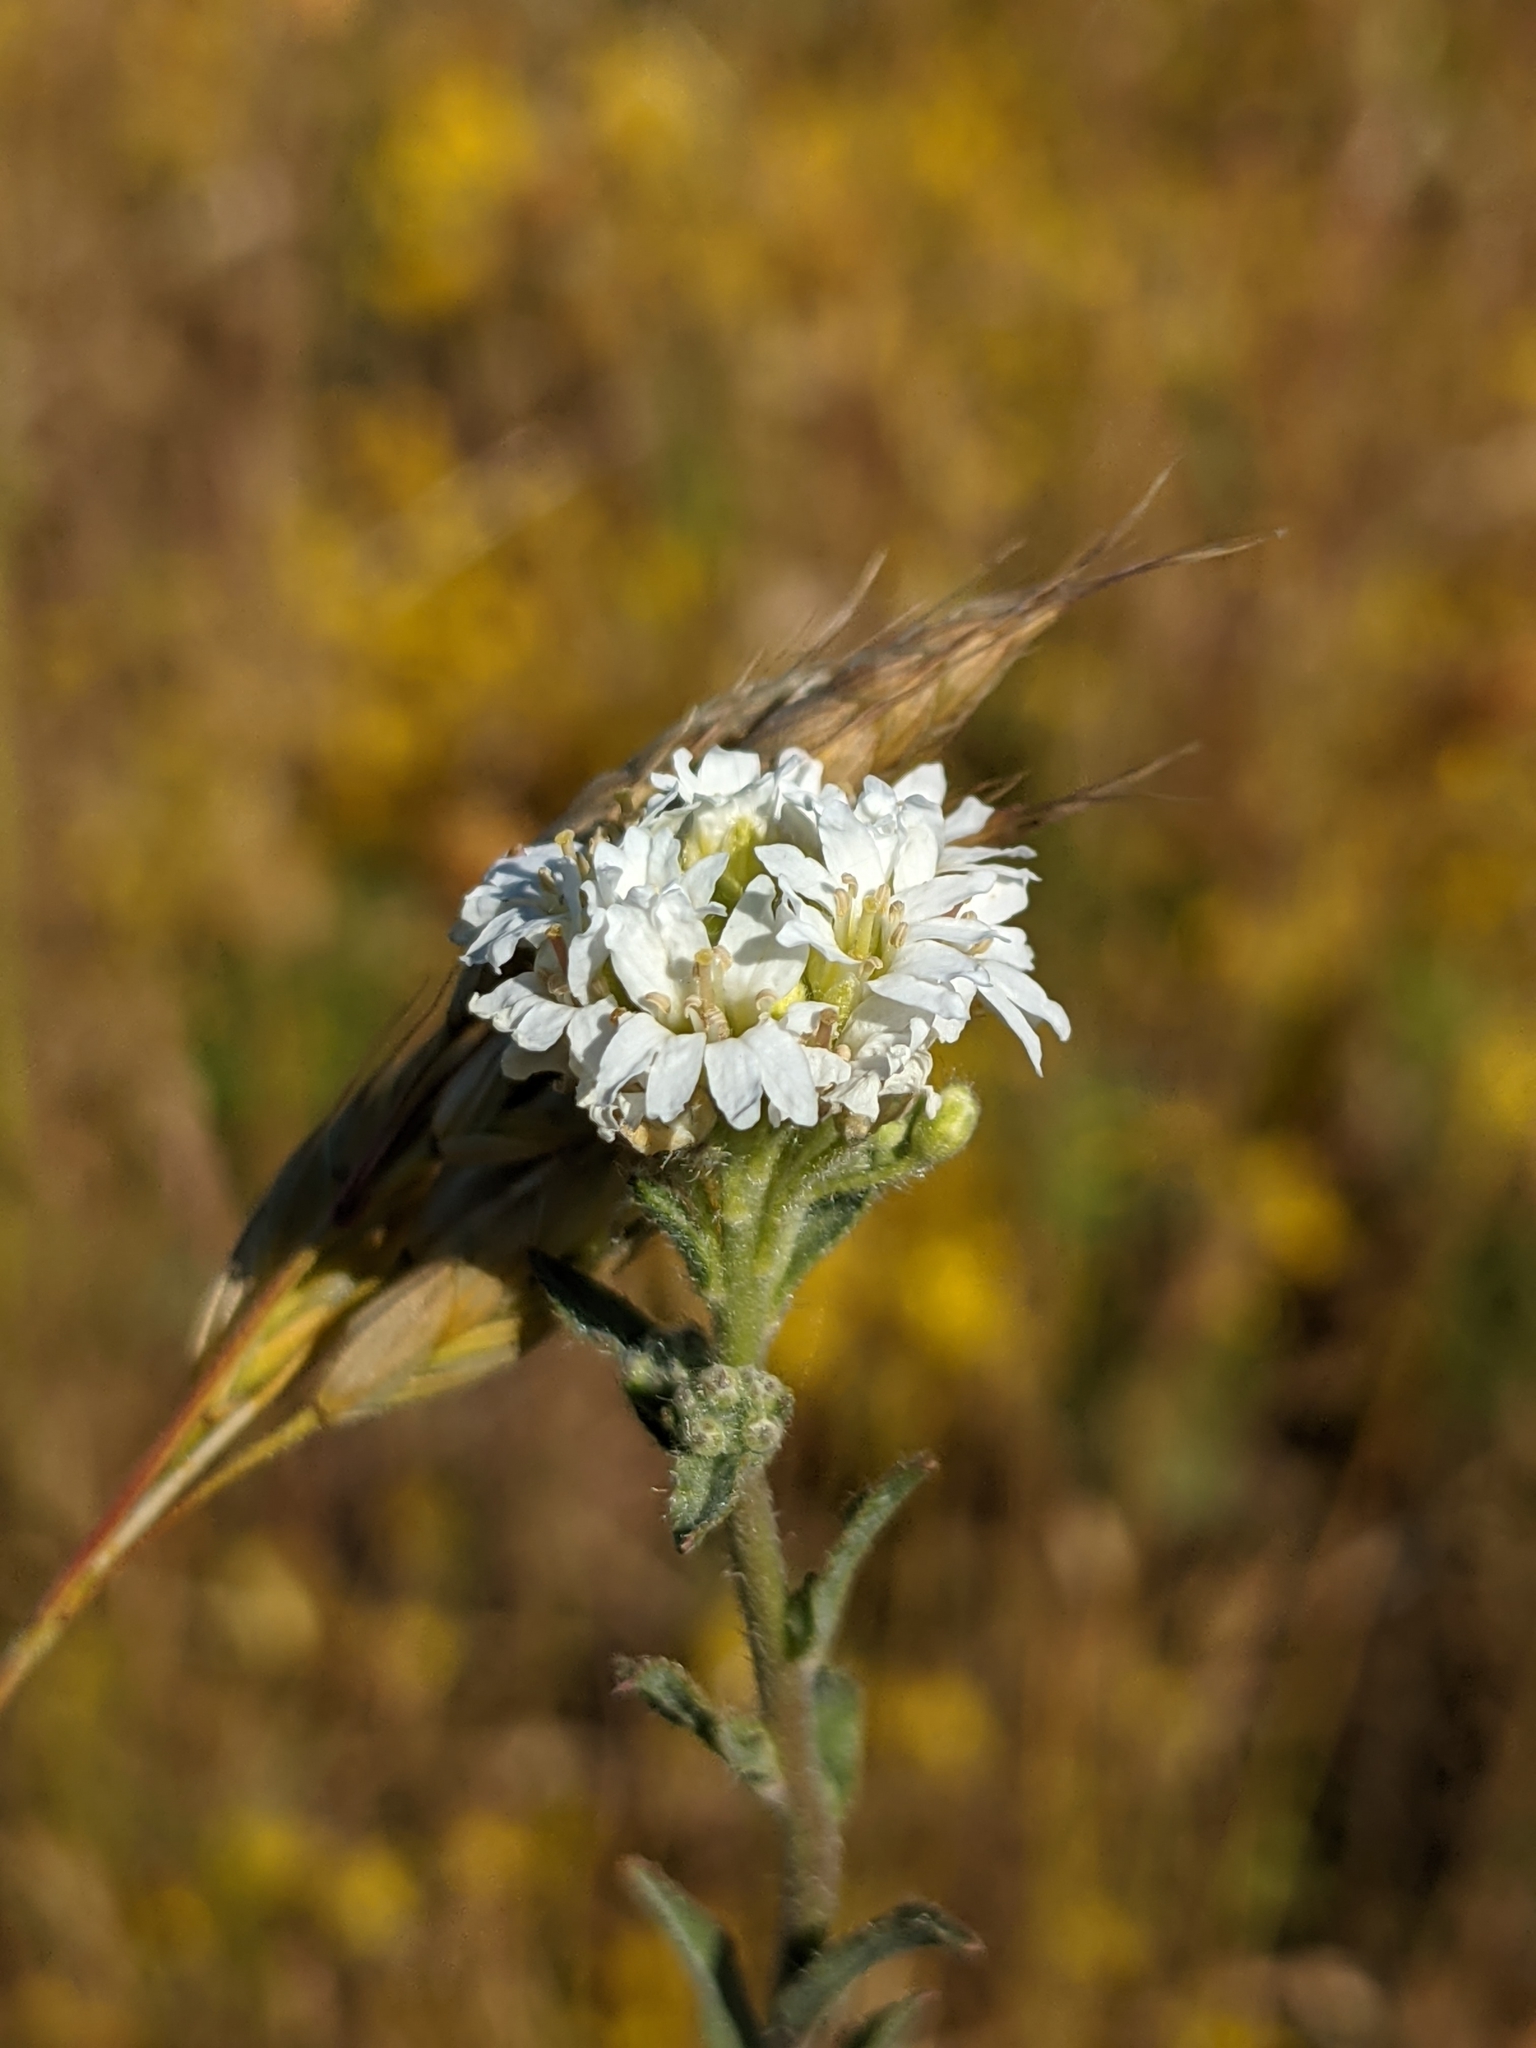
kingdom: Plantae
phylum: Tracheophyta
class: Magnoliopsida
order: Brassicales
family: Brassicaceae
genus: Berteroa
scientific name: Berteroa incana
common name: Hoary alison
